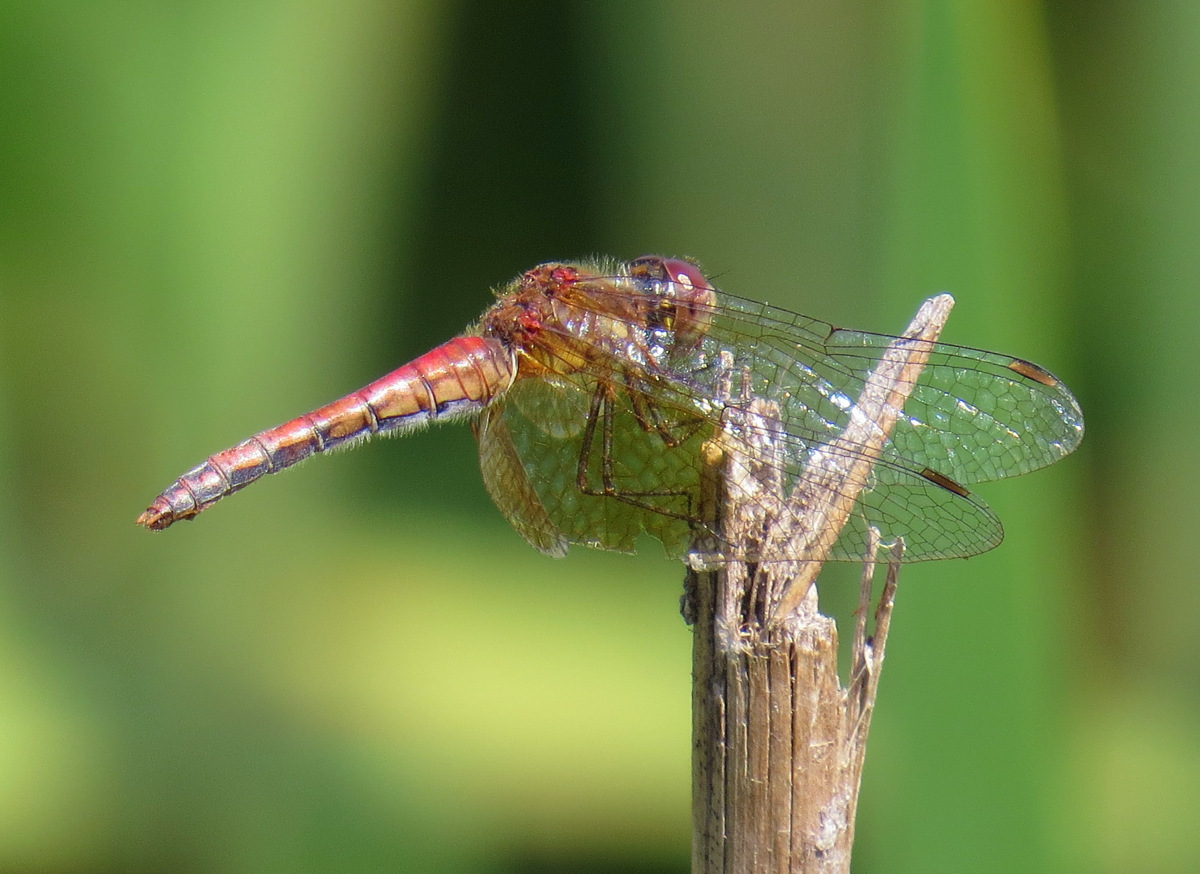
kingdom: Animalia
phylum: Arthropoda
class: Insecta
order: Odonata
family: Libellulidae
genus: Sympetrum
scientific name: Sympetrum semicinctum
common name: Band-winged meadowhawk
